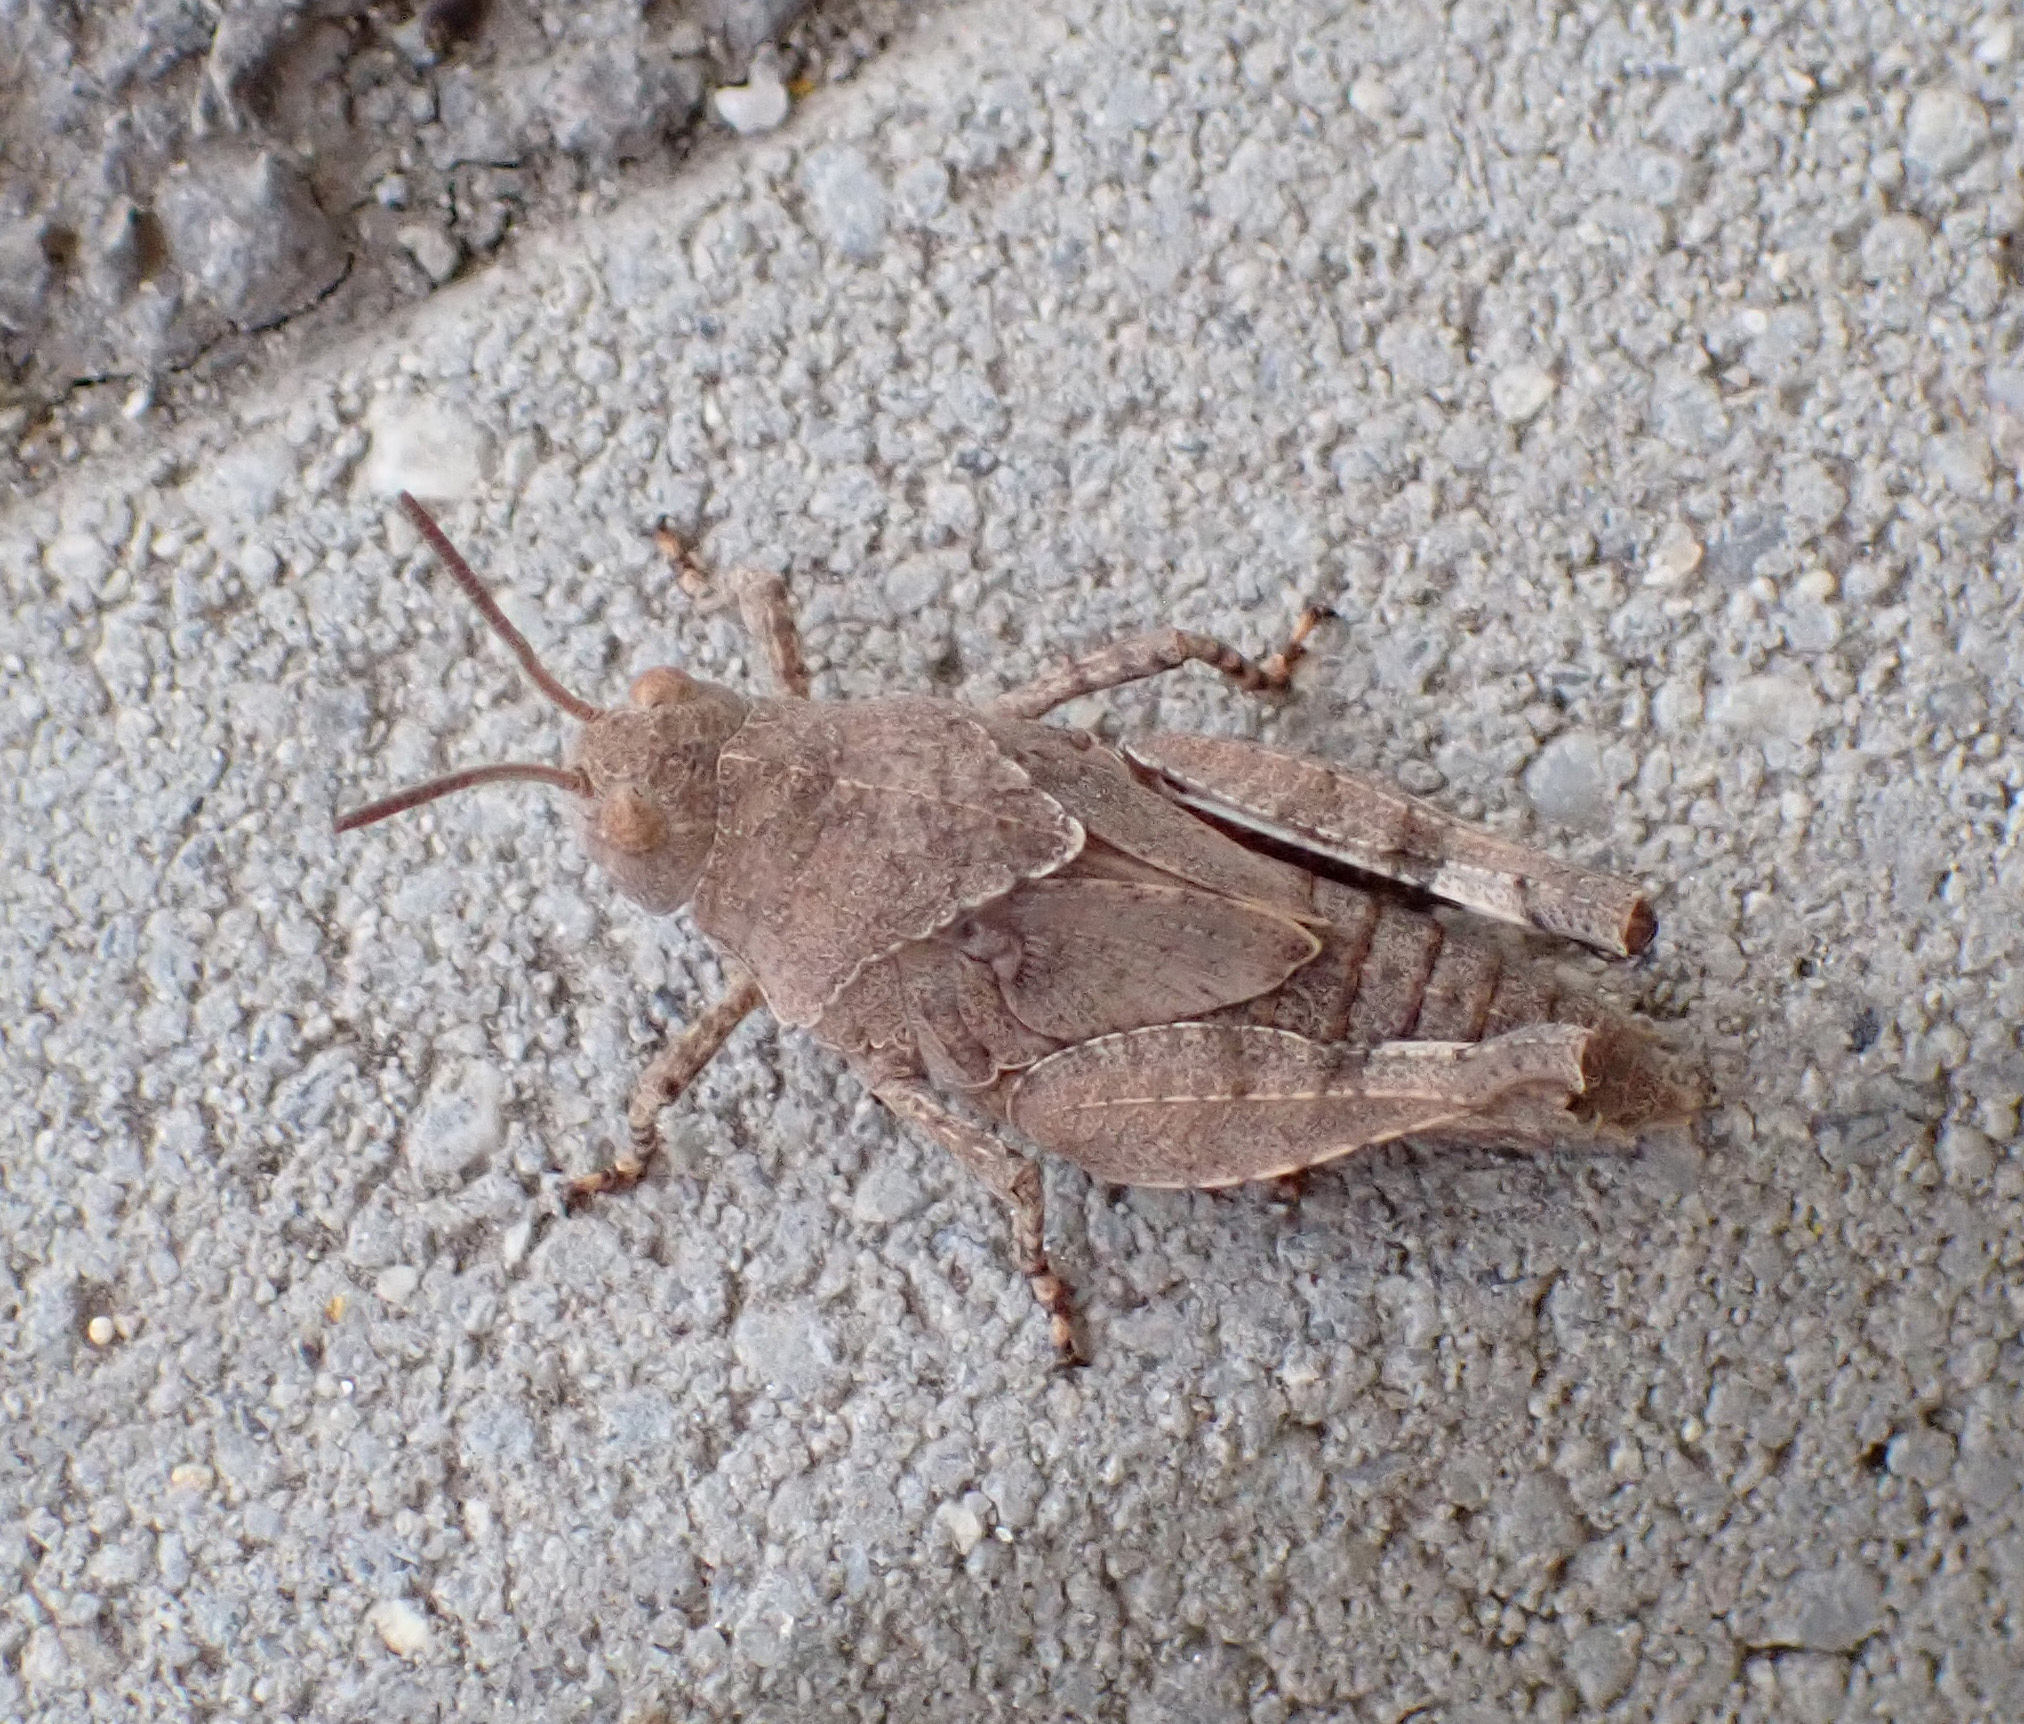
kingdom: Animalia
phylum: Arthropoda
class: Insecta
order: Orthoptera
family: Acrididae
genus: Oedipoda
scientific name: Oedipoda caerulescens
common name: Blue-winged grasshopper
